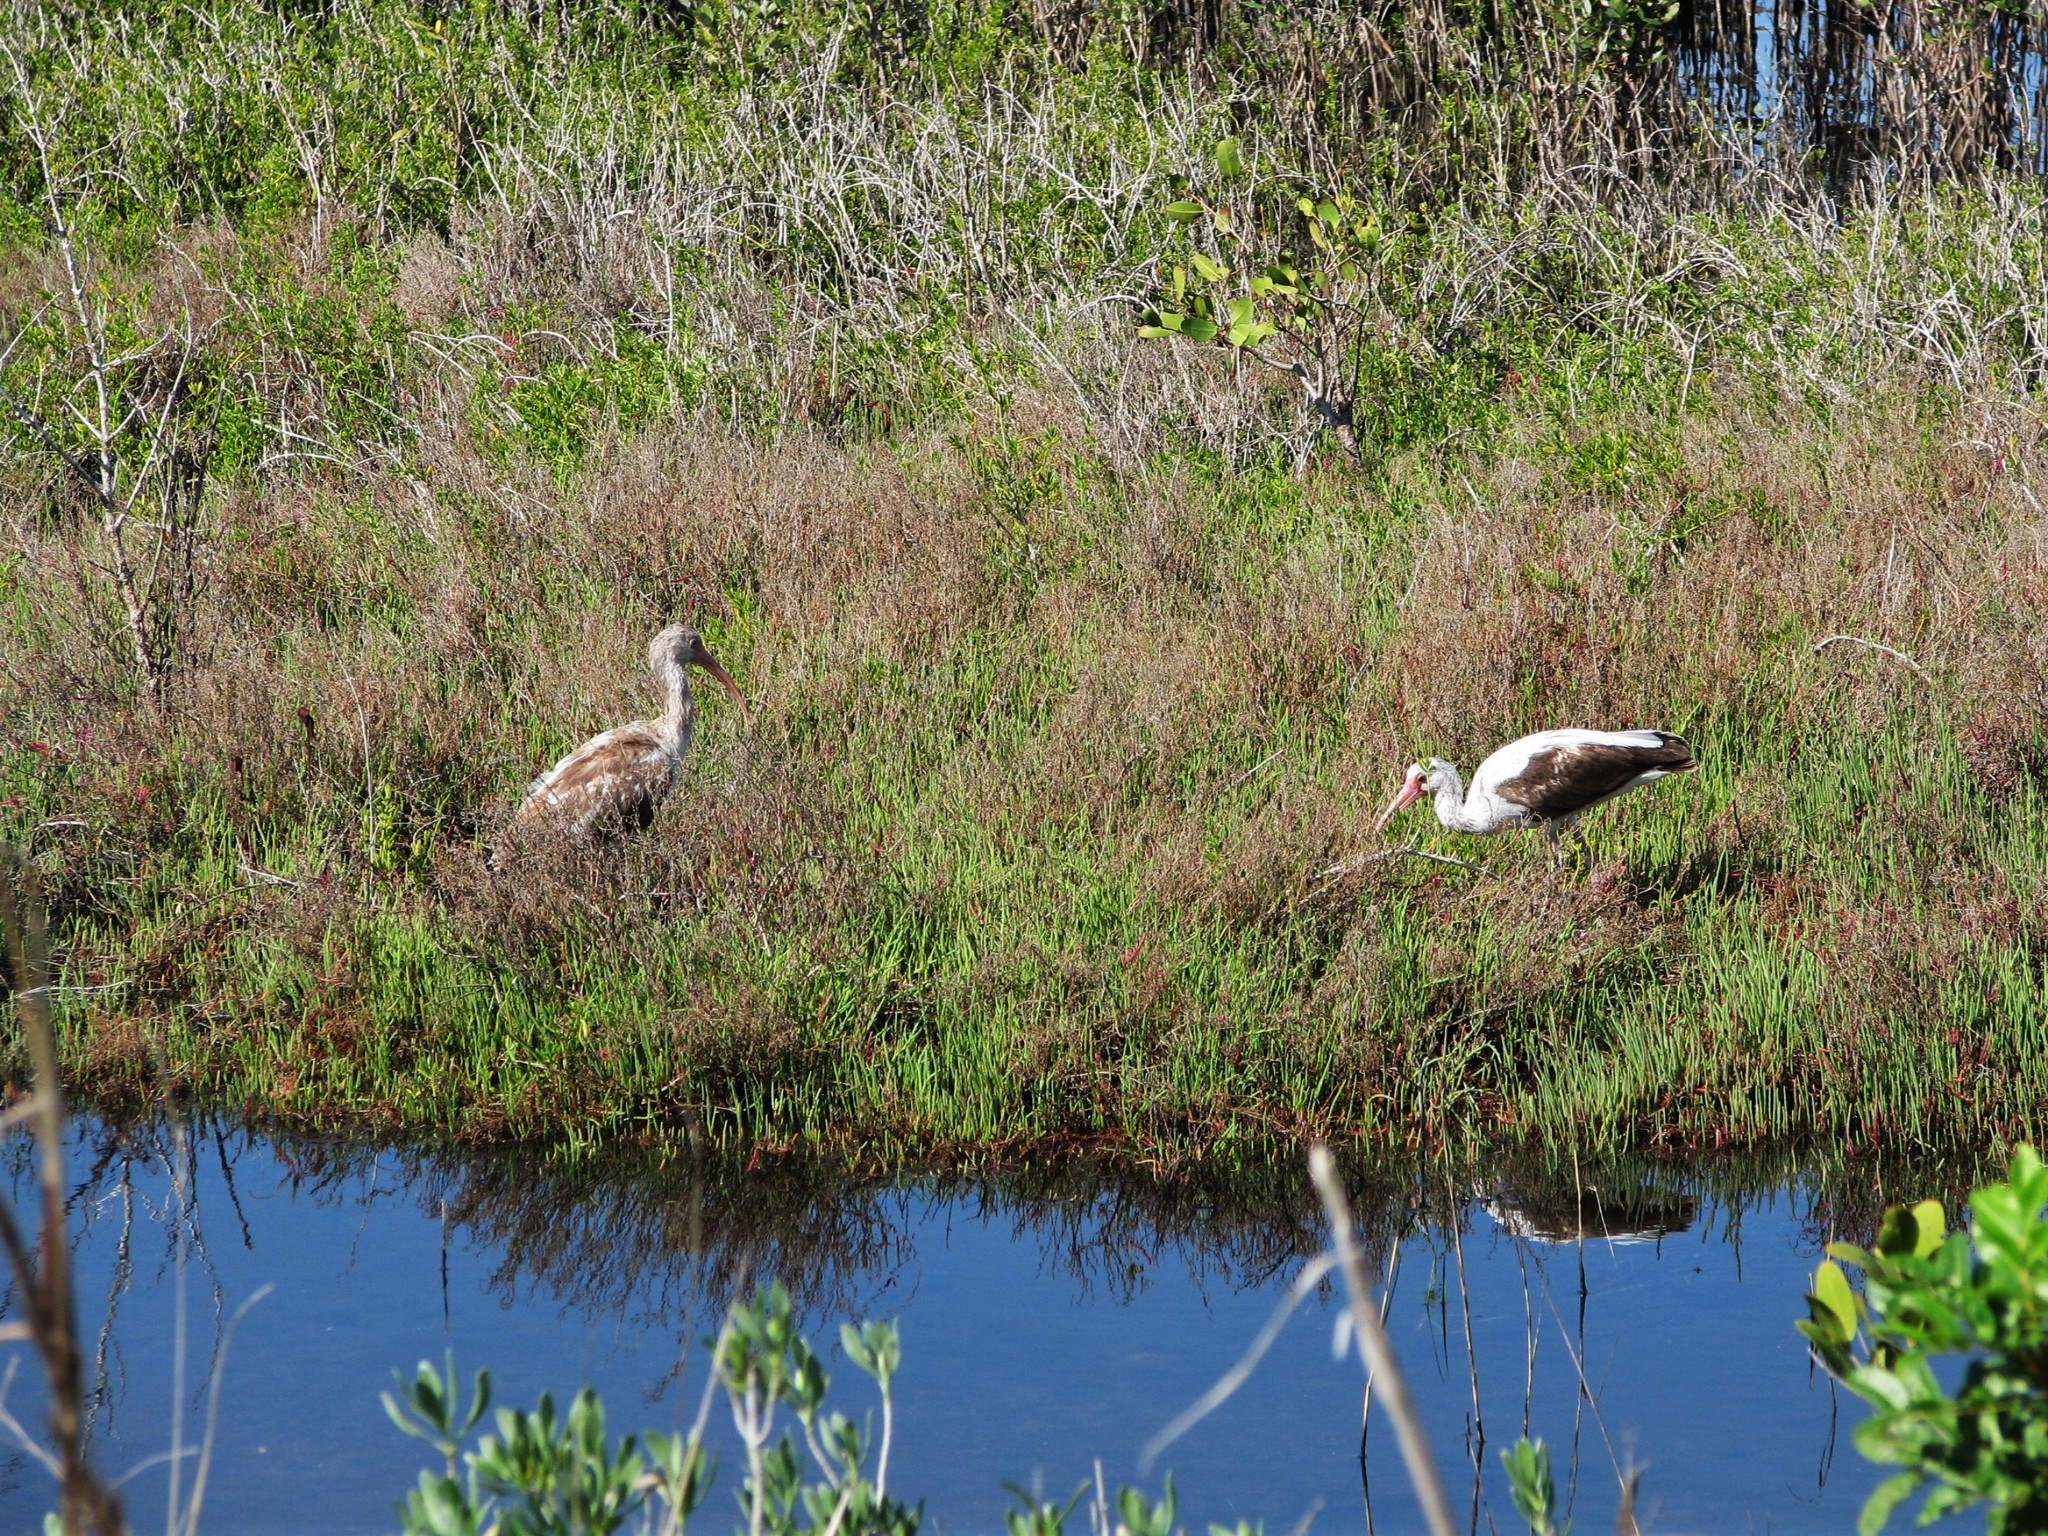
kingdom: Animalia
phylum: Chordata
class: Aves
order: Pelecaniformes
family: Threskiornithidae
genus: Eudocimus
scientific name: Eudocimus albus
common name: White ibis
